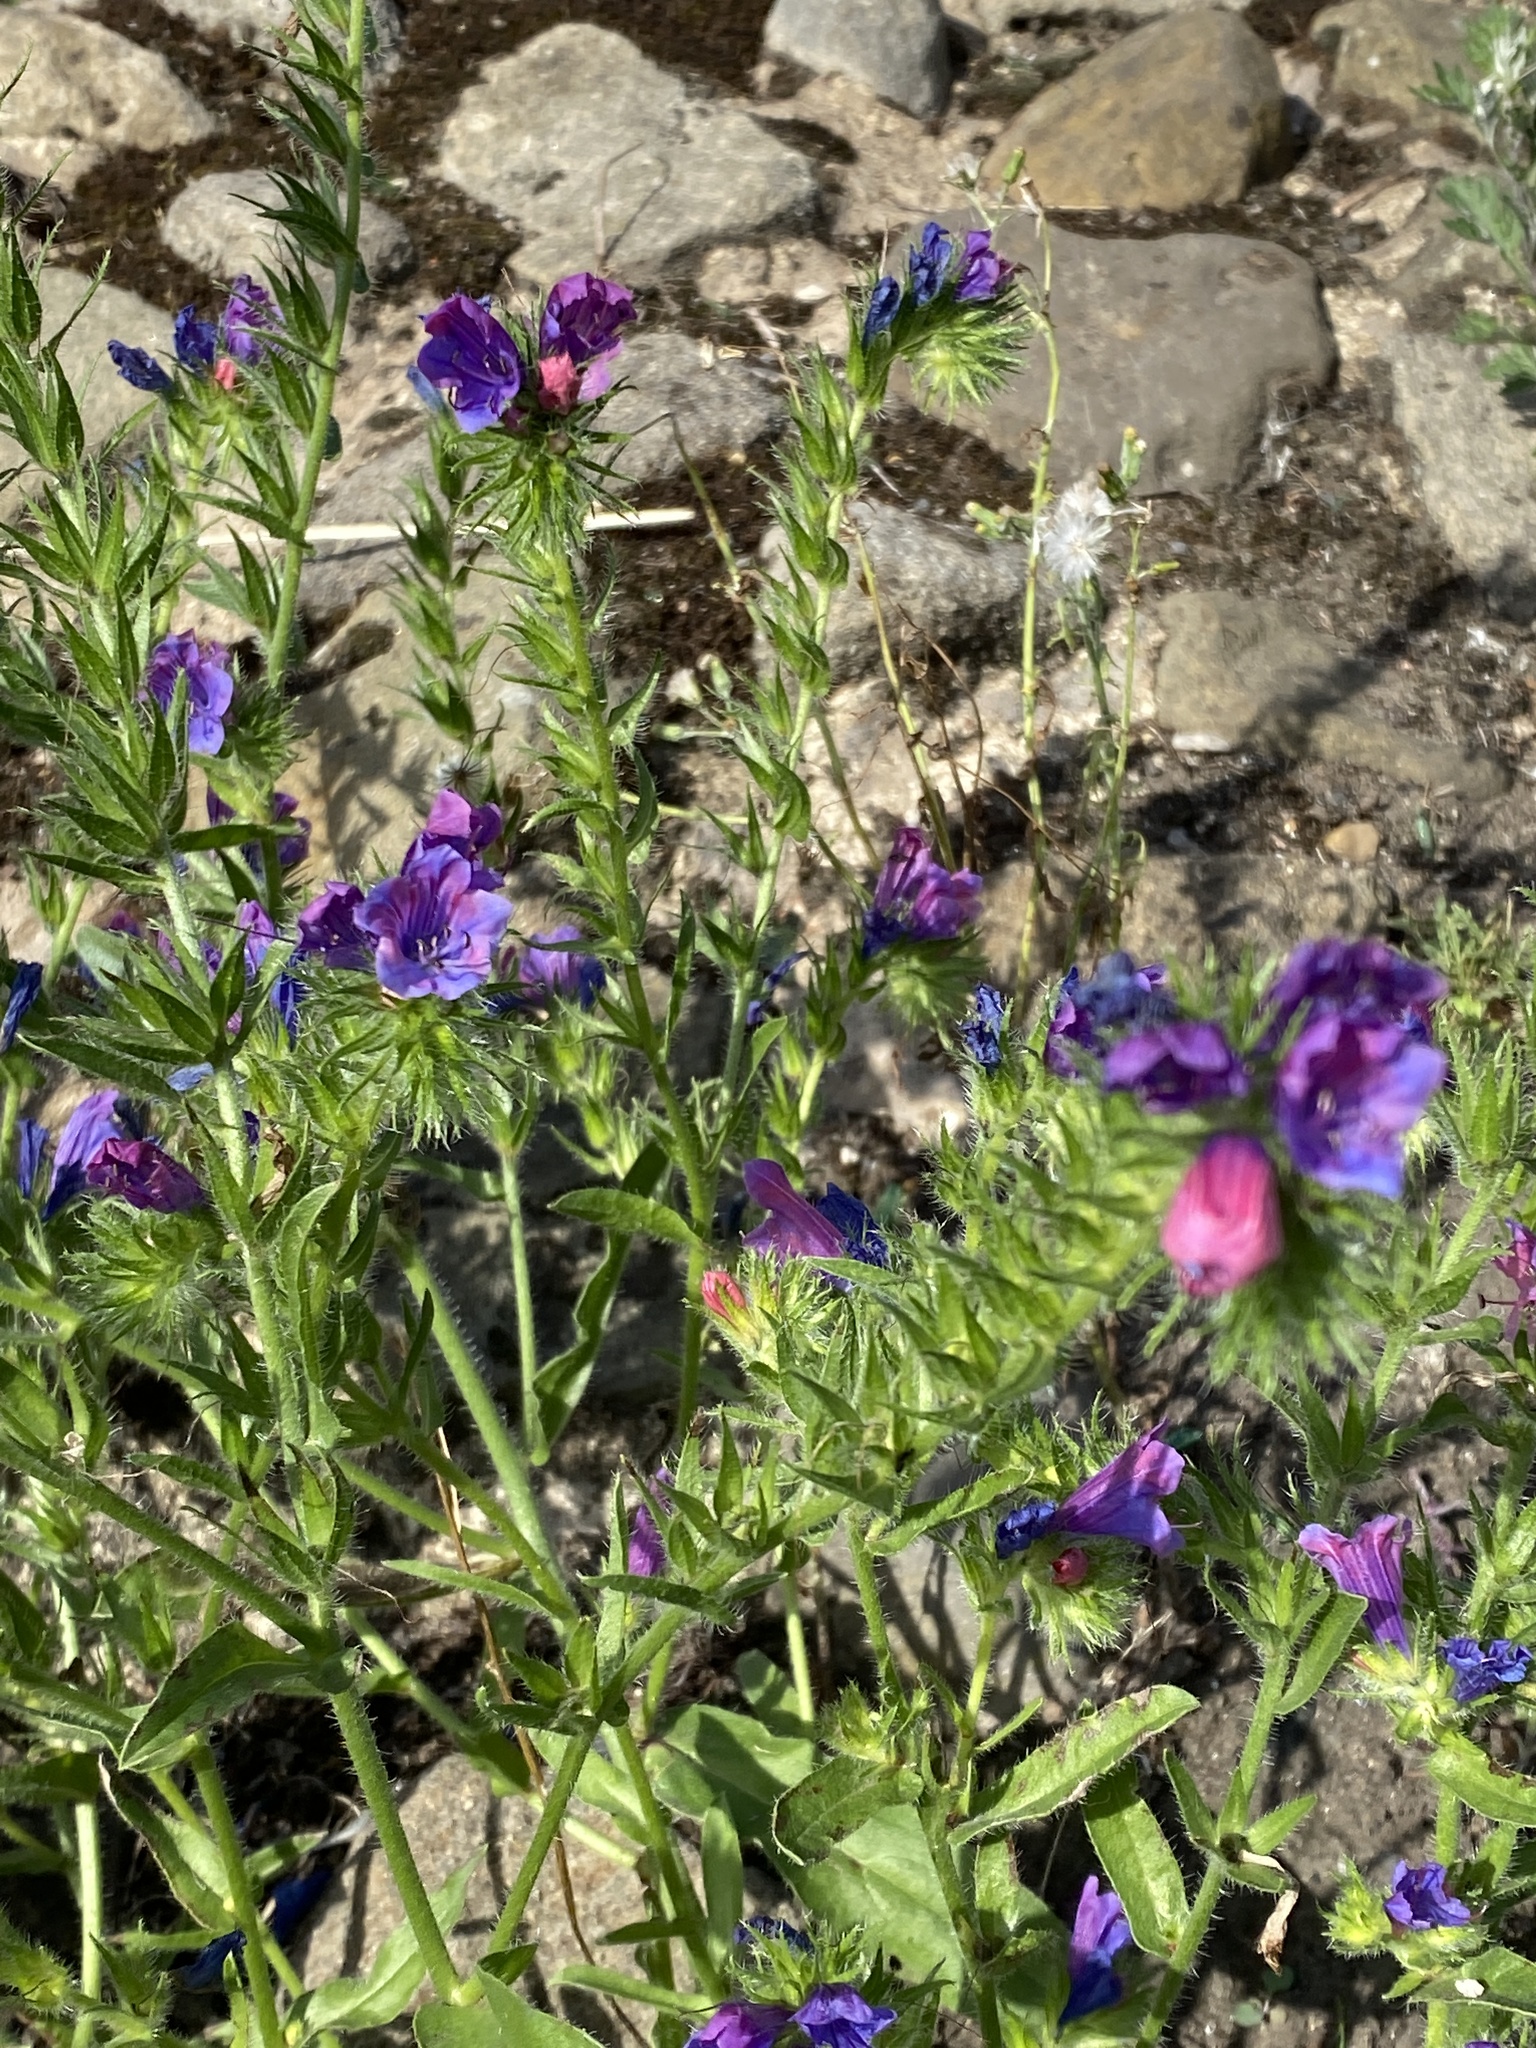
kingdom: Plantae
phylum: Tracheophyta
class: Magnoliopsida
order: Boraginales
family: Boraginaceae
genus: Echium
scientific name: Echium plantagineum
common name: Purple viper's-bugloss
